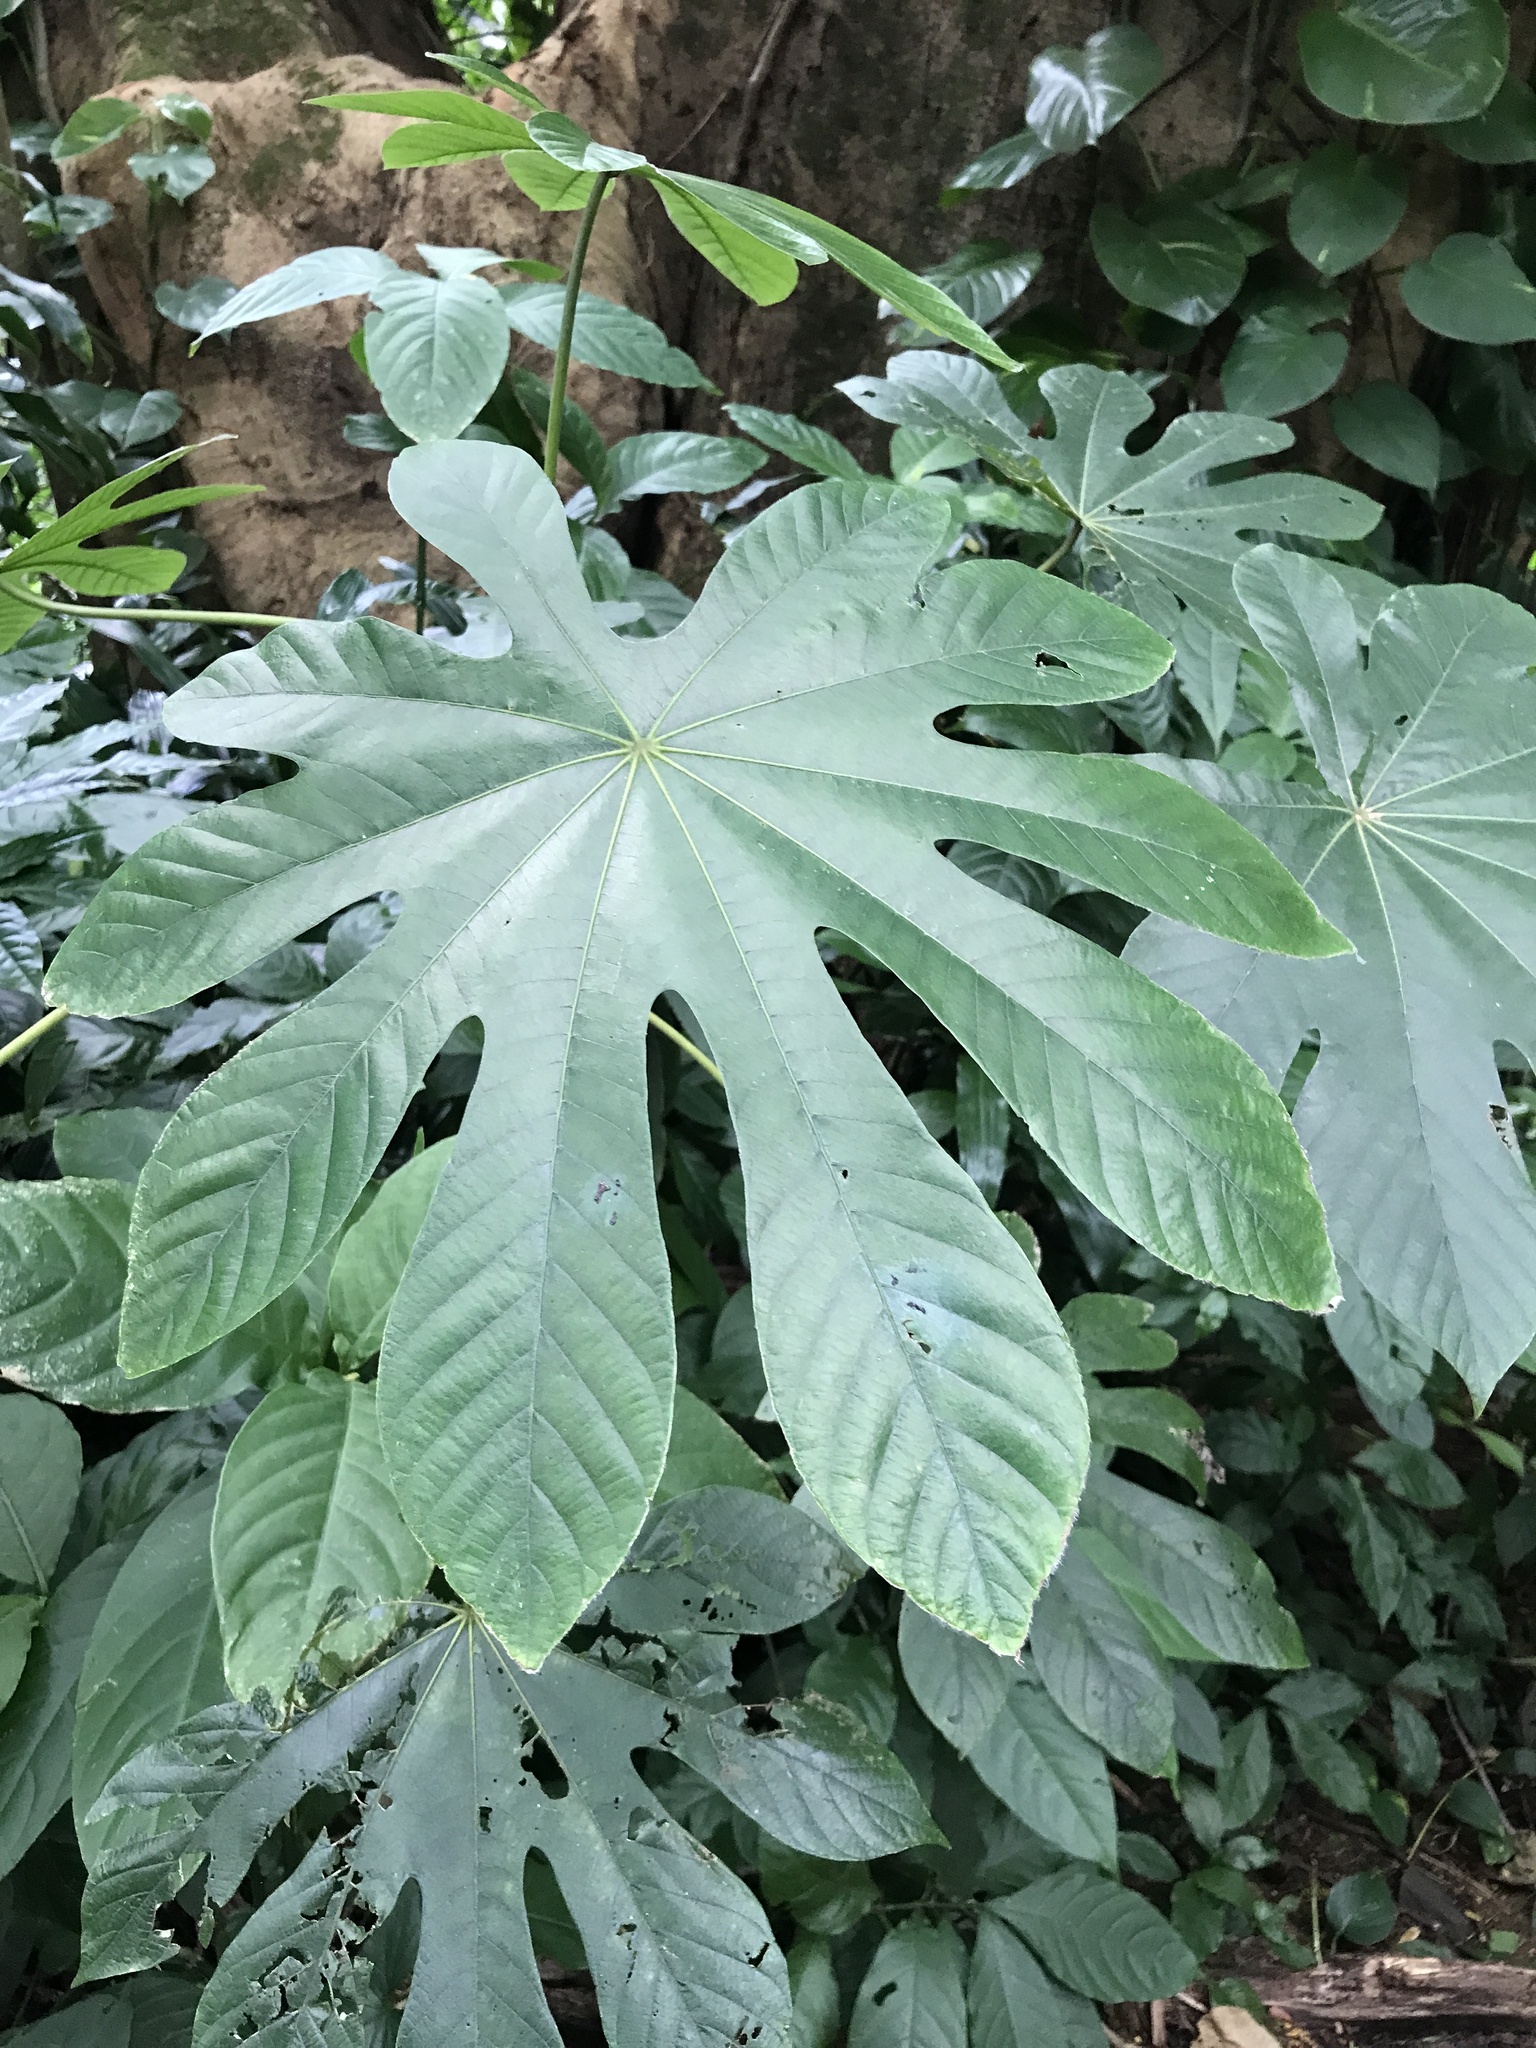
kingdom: Plantae
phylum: Tracheophyta
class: Magnoliopsida
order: Rosales
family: Urticaceae
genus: Cecropia
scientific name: Cecropia obtusifolia
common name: Trumpet tree
